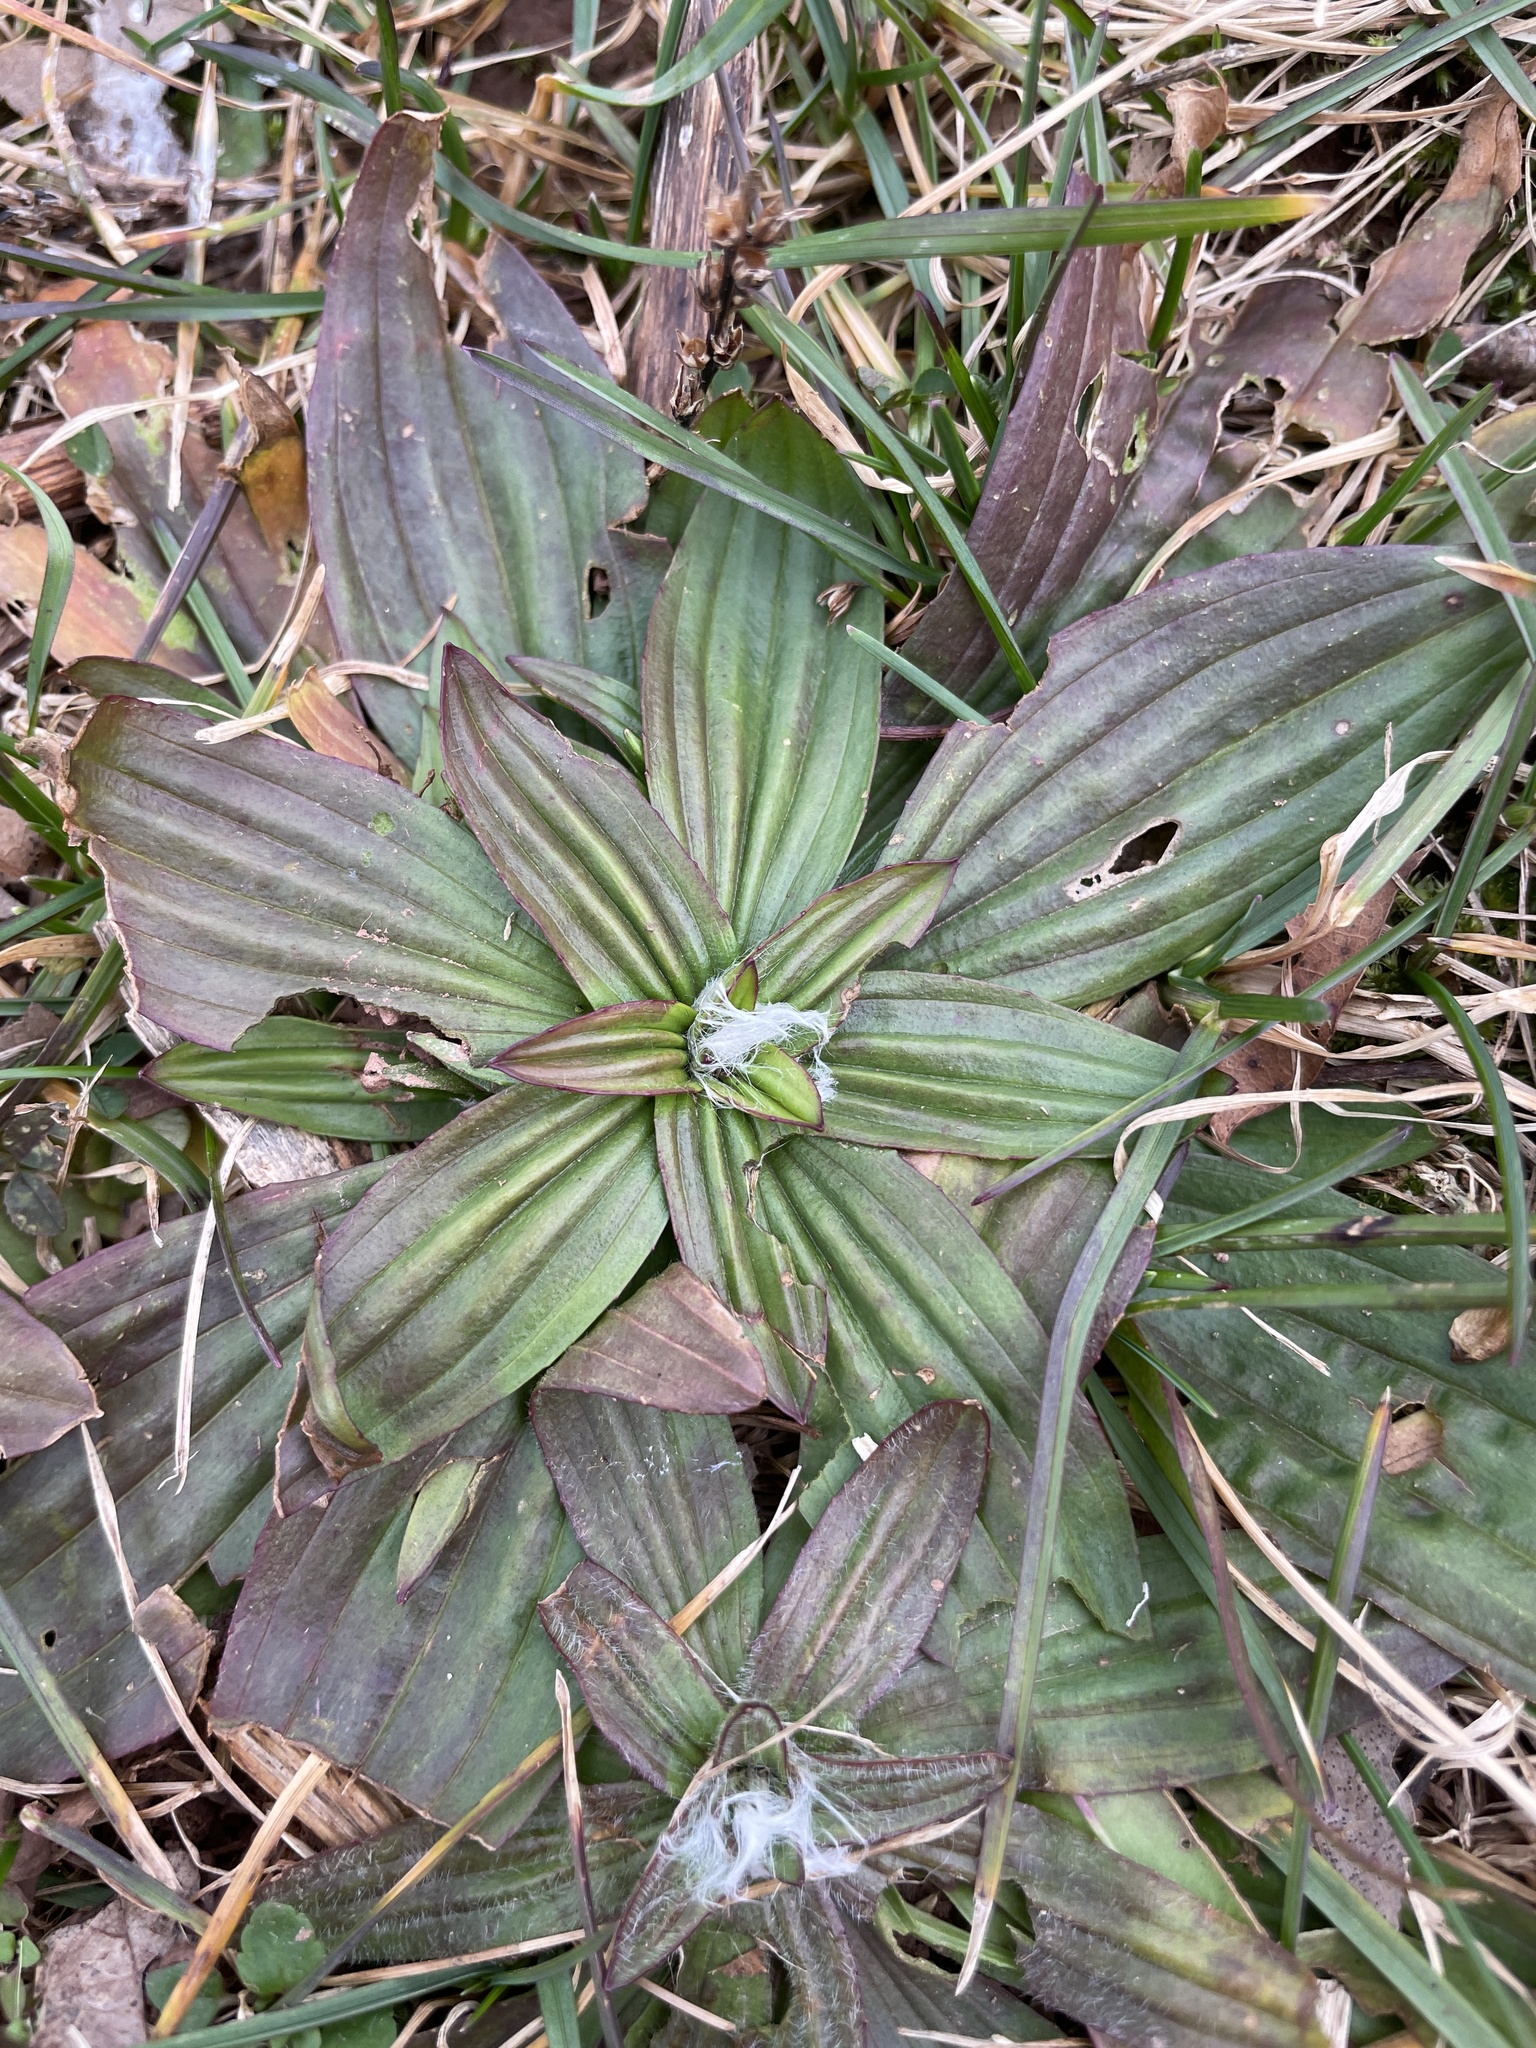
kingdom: Plantae
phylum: Tracheophyta
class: Magnoliopsida
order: Lamiales
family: Plantaginaceae
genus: Plantago
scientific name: Plantago lanceolata
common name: Ribwort plantain
